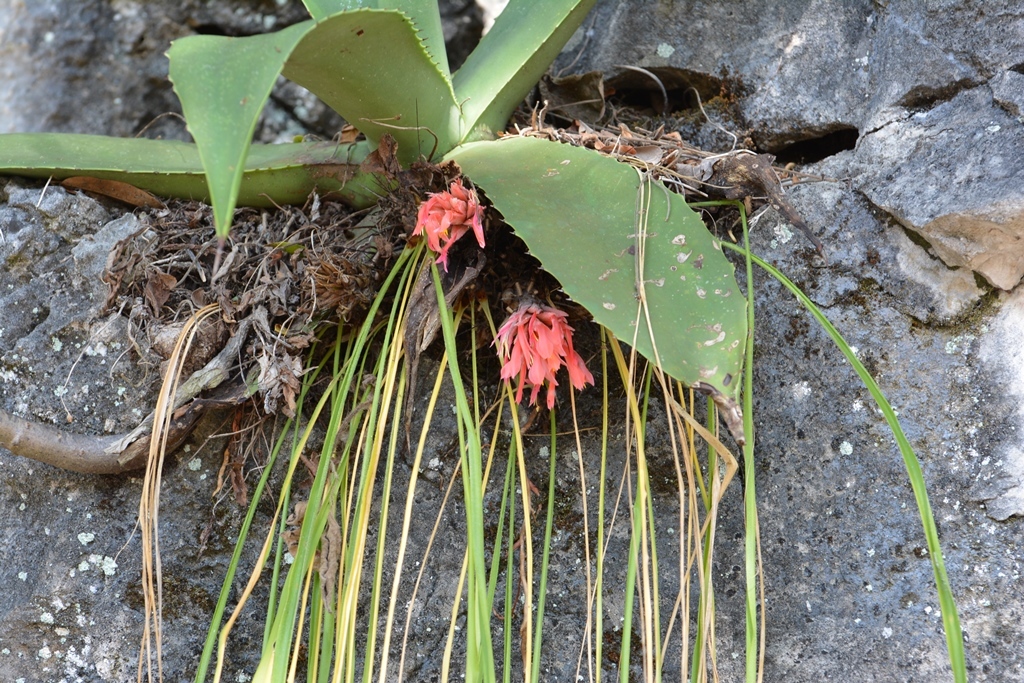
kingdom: Plantae
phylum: Tracheophyta
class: Liliopsida
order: Poales
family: Bromeliaceae
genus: Pitcairnia
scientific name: Pitcairnia heterophylla
